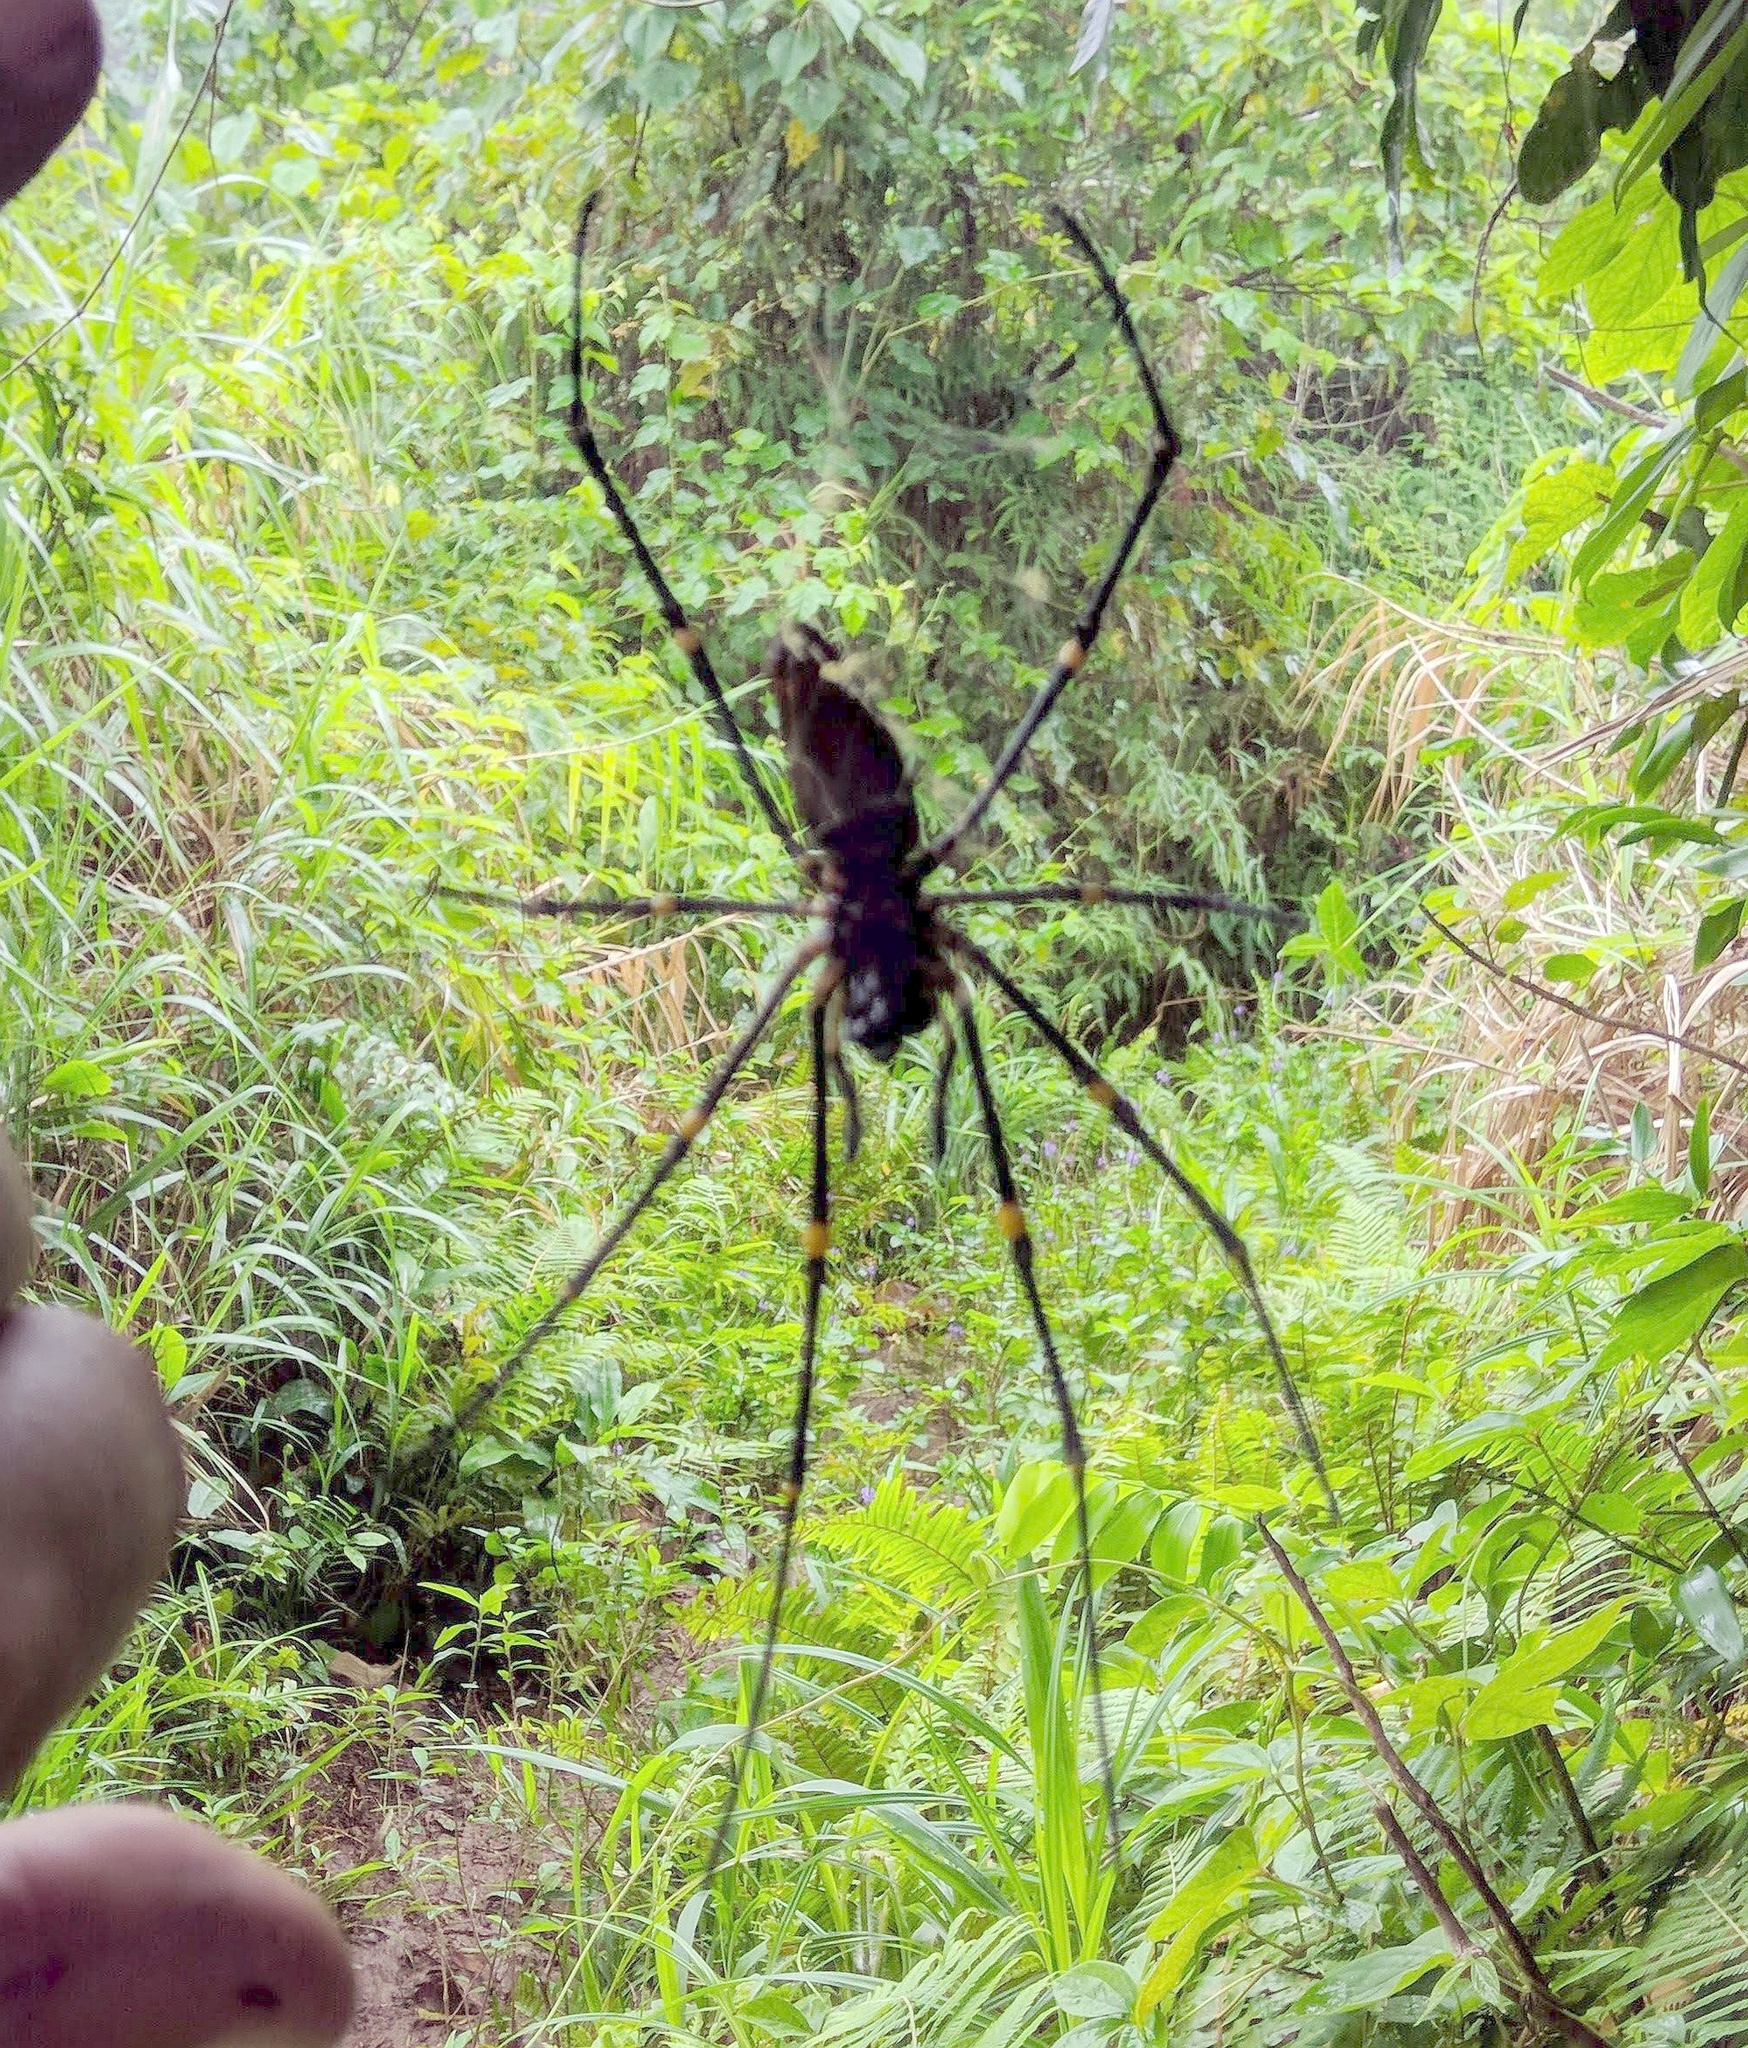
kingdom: Animalia
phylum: Arthropoda
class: Arachnida
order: Araneae
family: Araneidae
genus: Nephila
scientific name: Nephila pilipes
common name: Giant golden orb weaver
